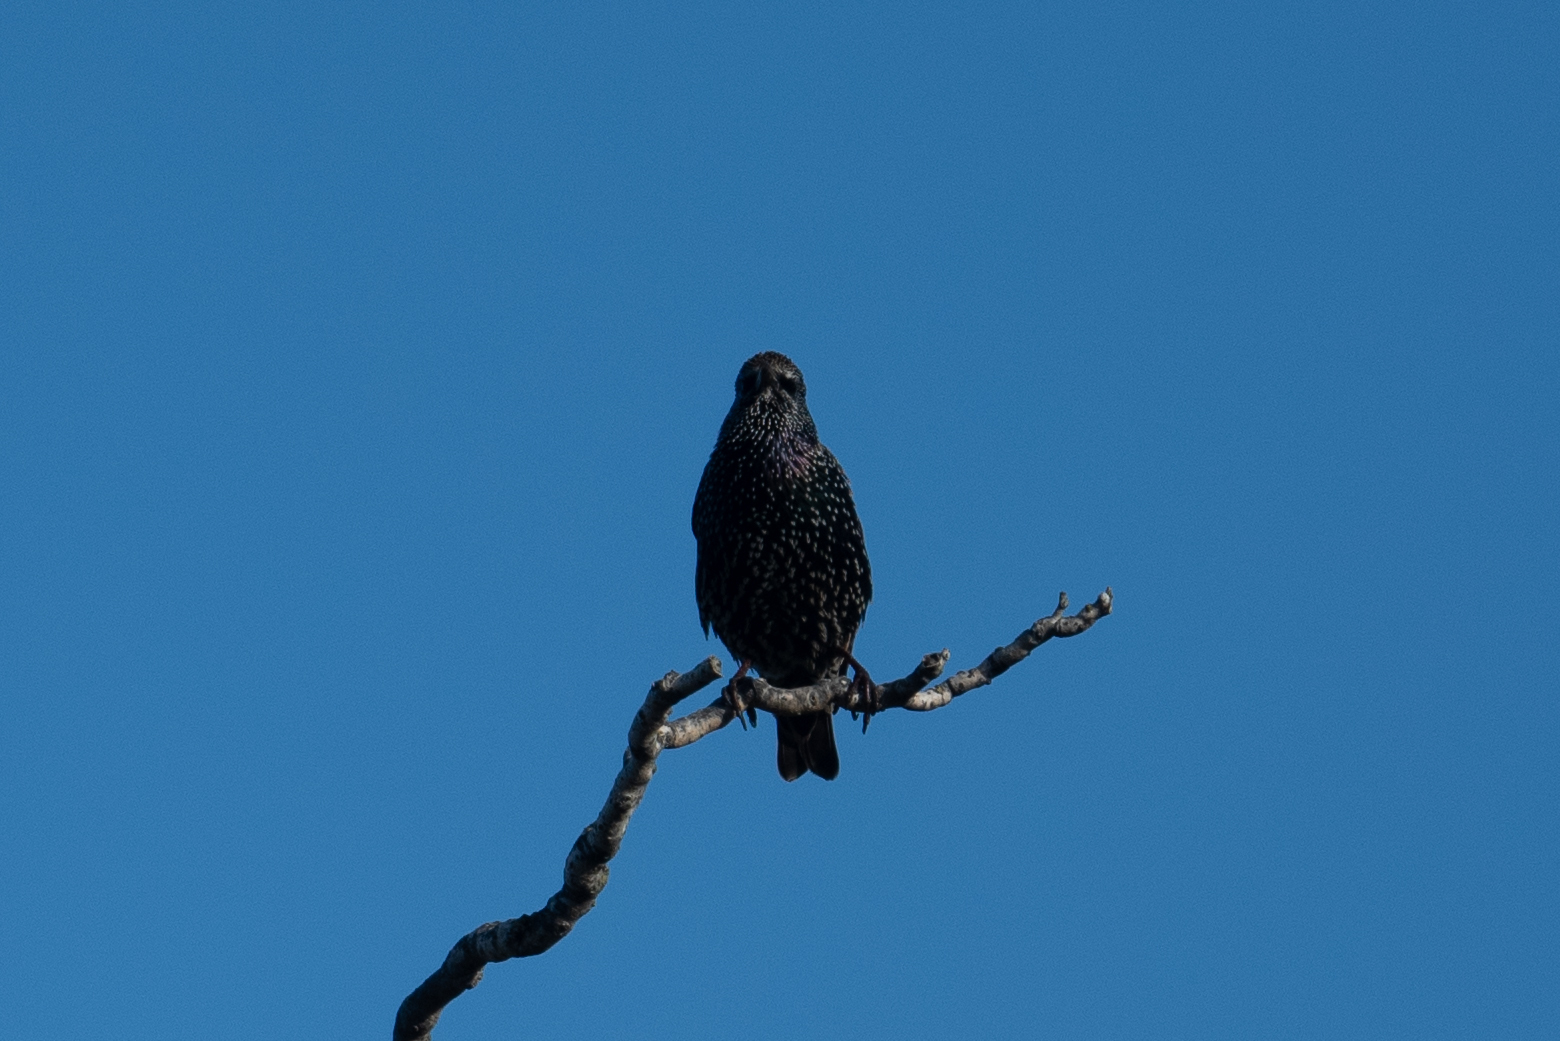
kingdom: Animalia
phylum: Chordata
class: Aves
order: Passeriformes
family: Sturnidae
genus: Sturnus
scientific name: Sturnus vulgaris
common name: Common starling
